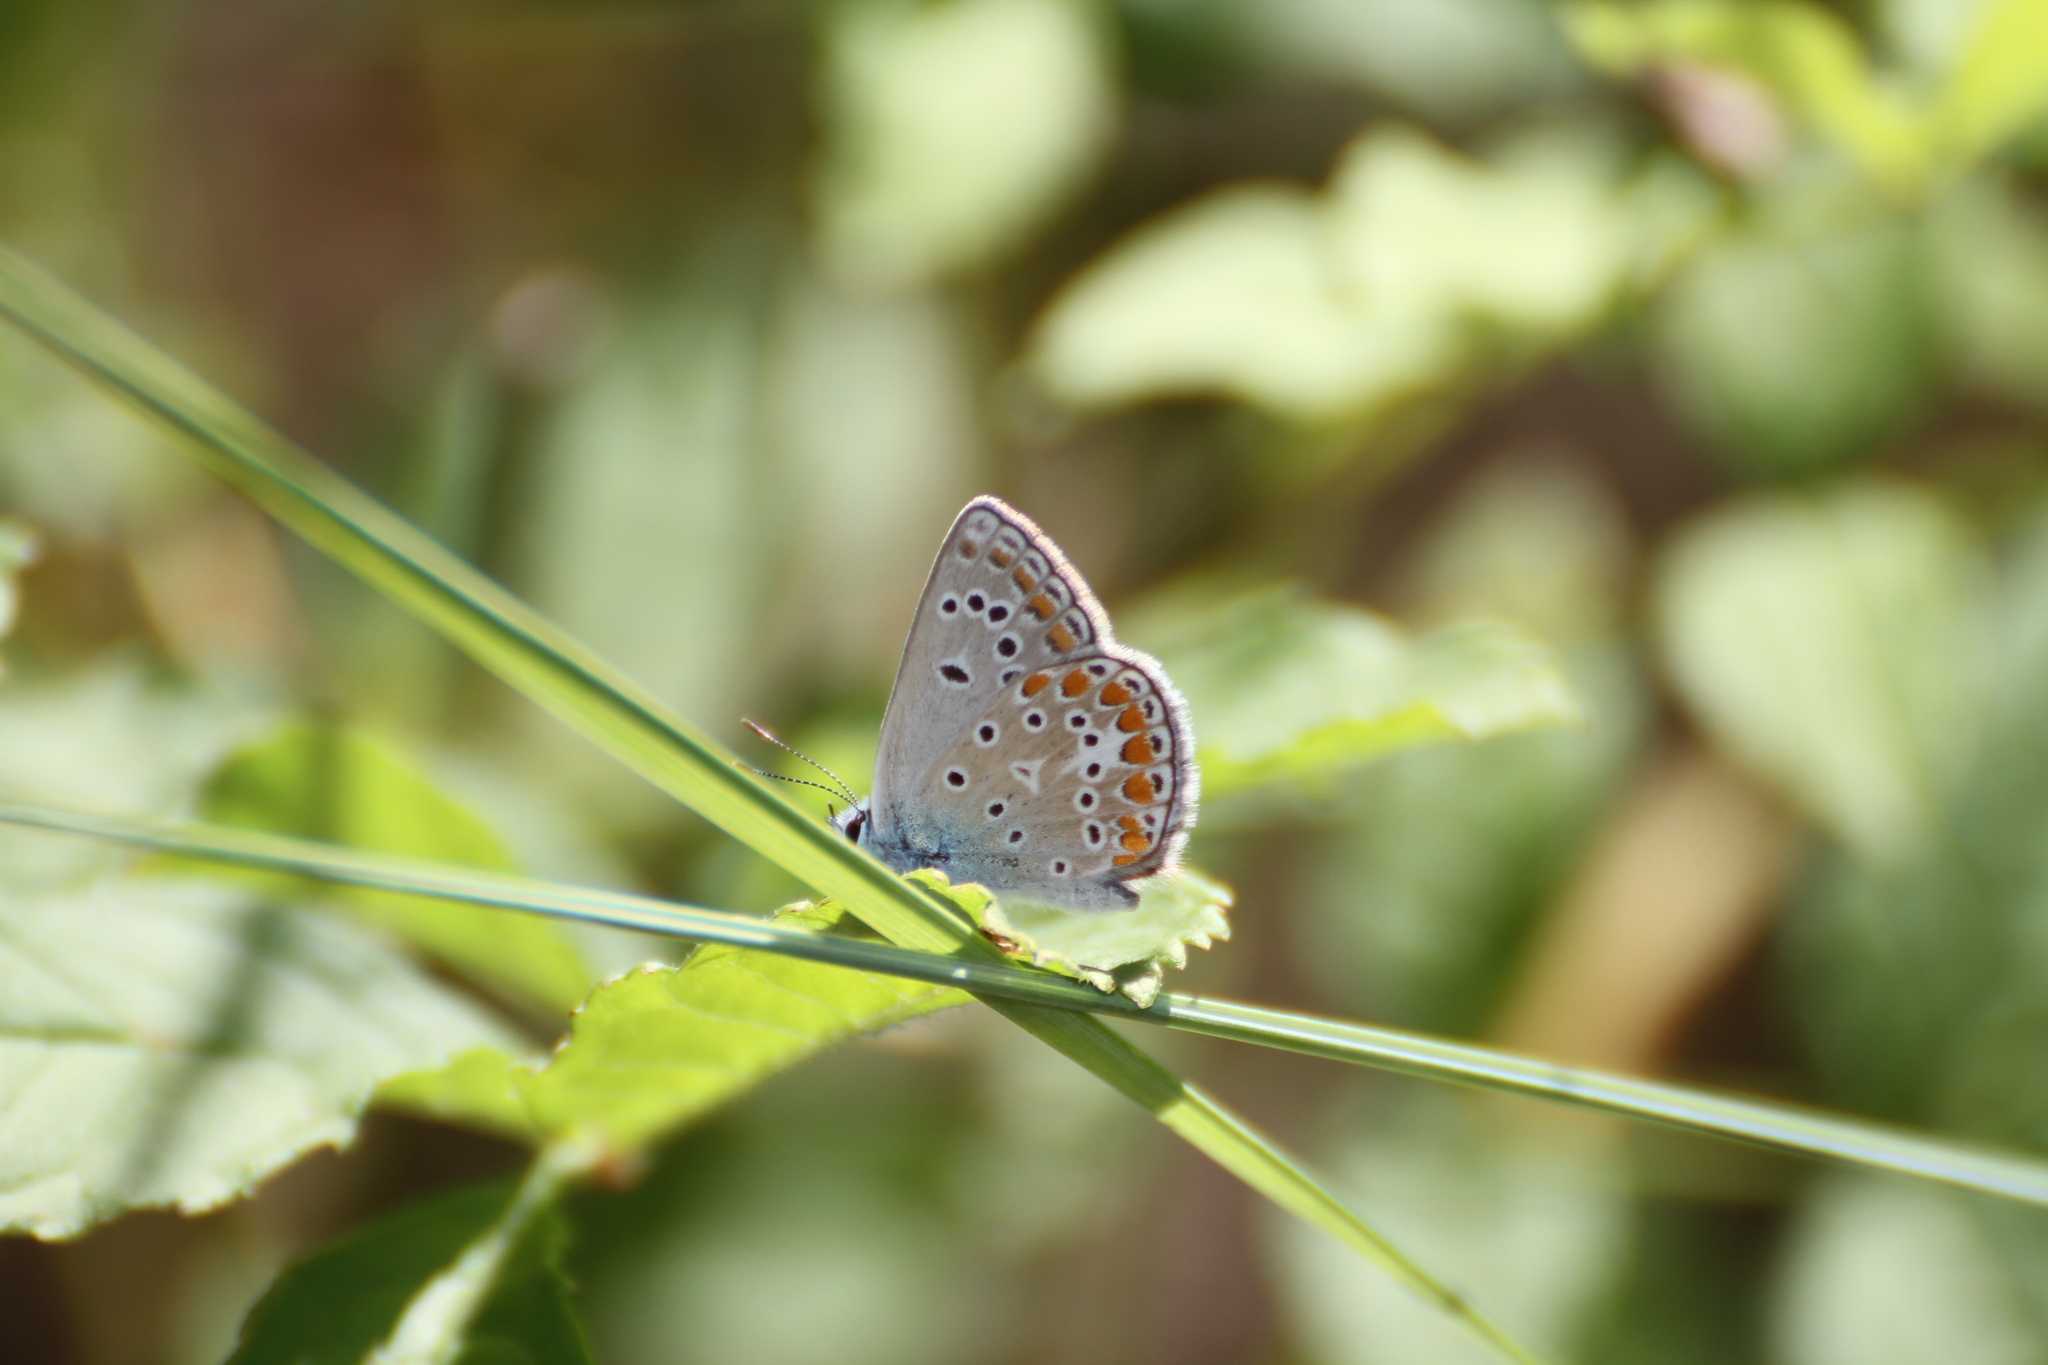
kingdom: Animalia
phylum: Arthropoda
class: Insecta
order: Lepidoptera
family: Lycaenidae
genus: Polyommatus
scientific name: Polyommatus thersites
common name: Chapman's blue
